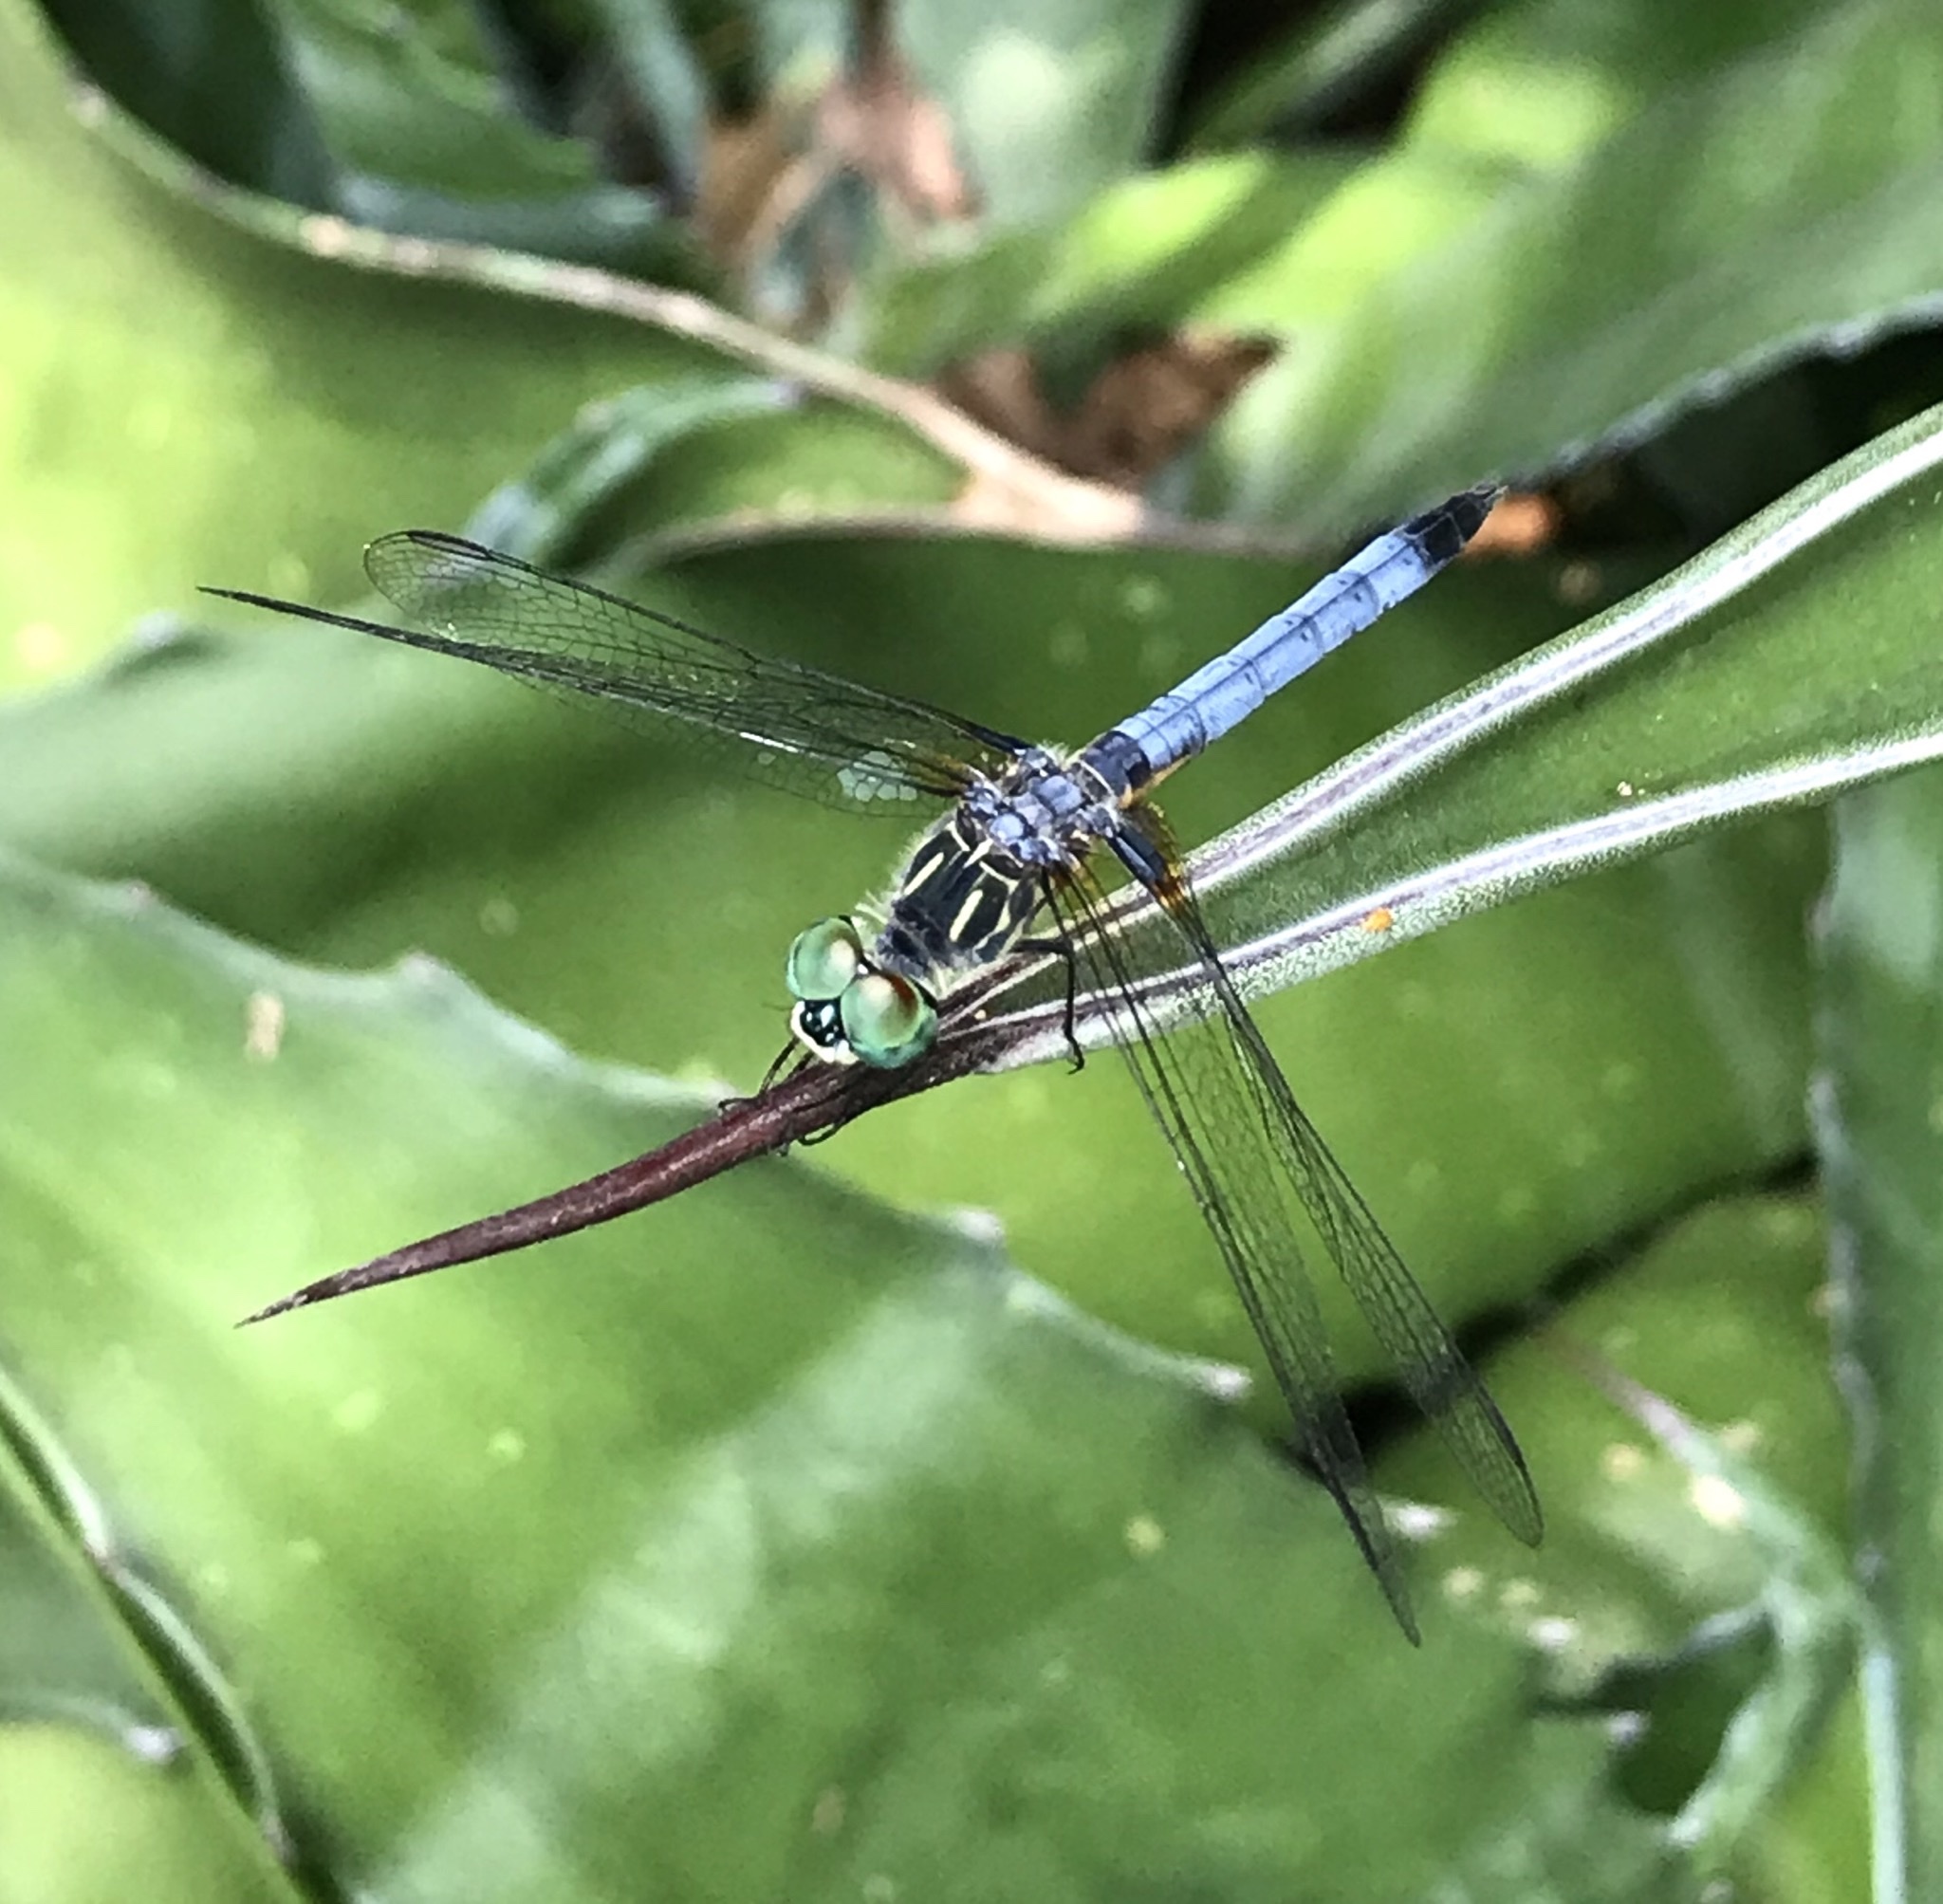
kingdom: Animalia
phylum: Arthropoda
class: Insecta
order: Odonata
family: Libellulidae
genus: Pachydiplax
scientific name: Pachydiplax longipennis
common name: Blue dasher
